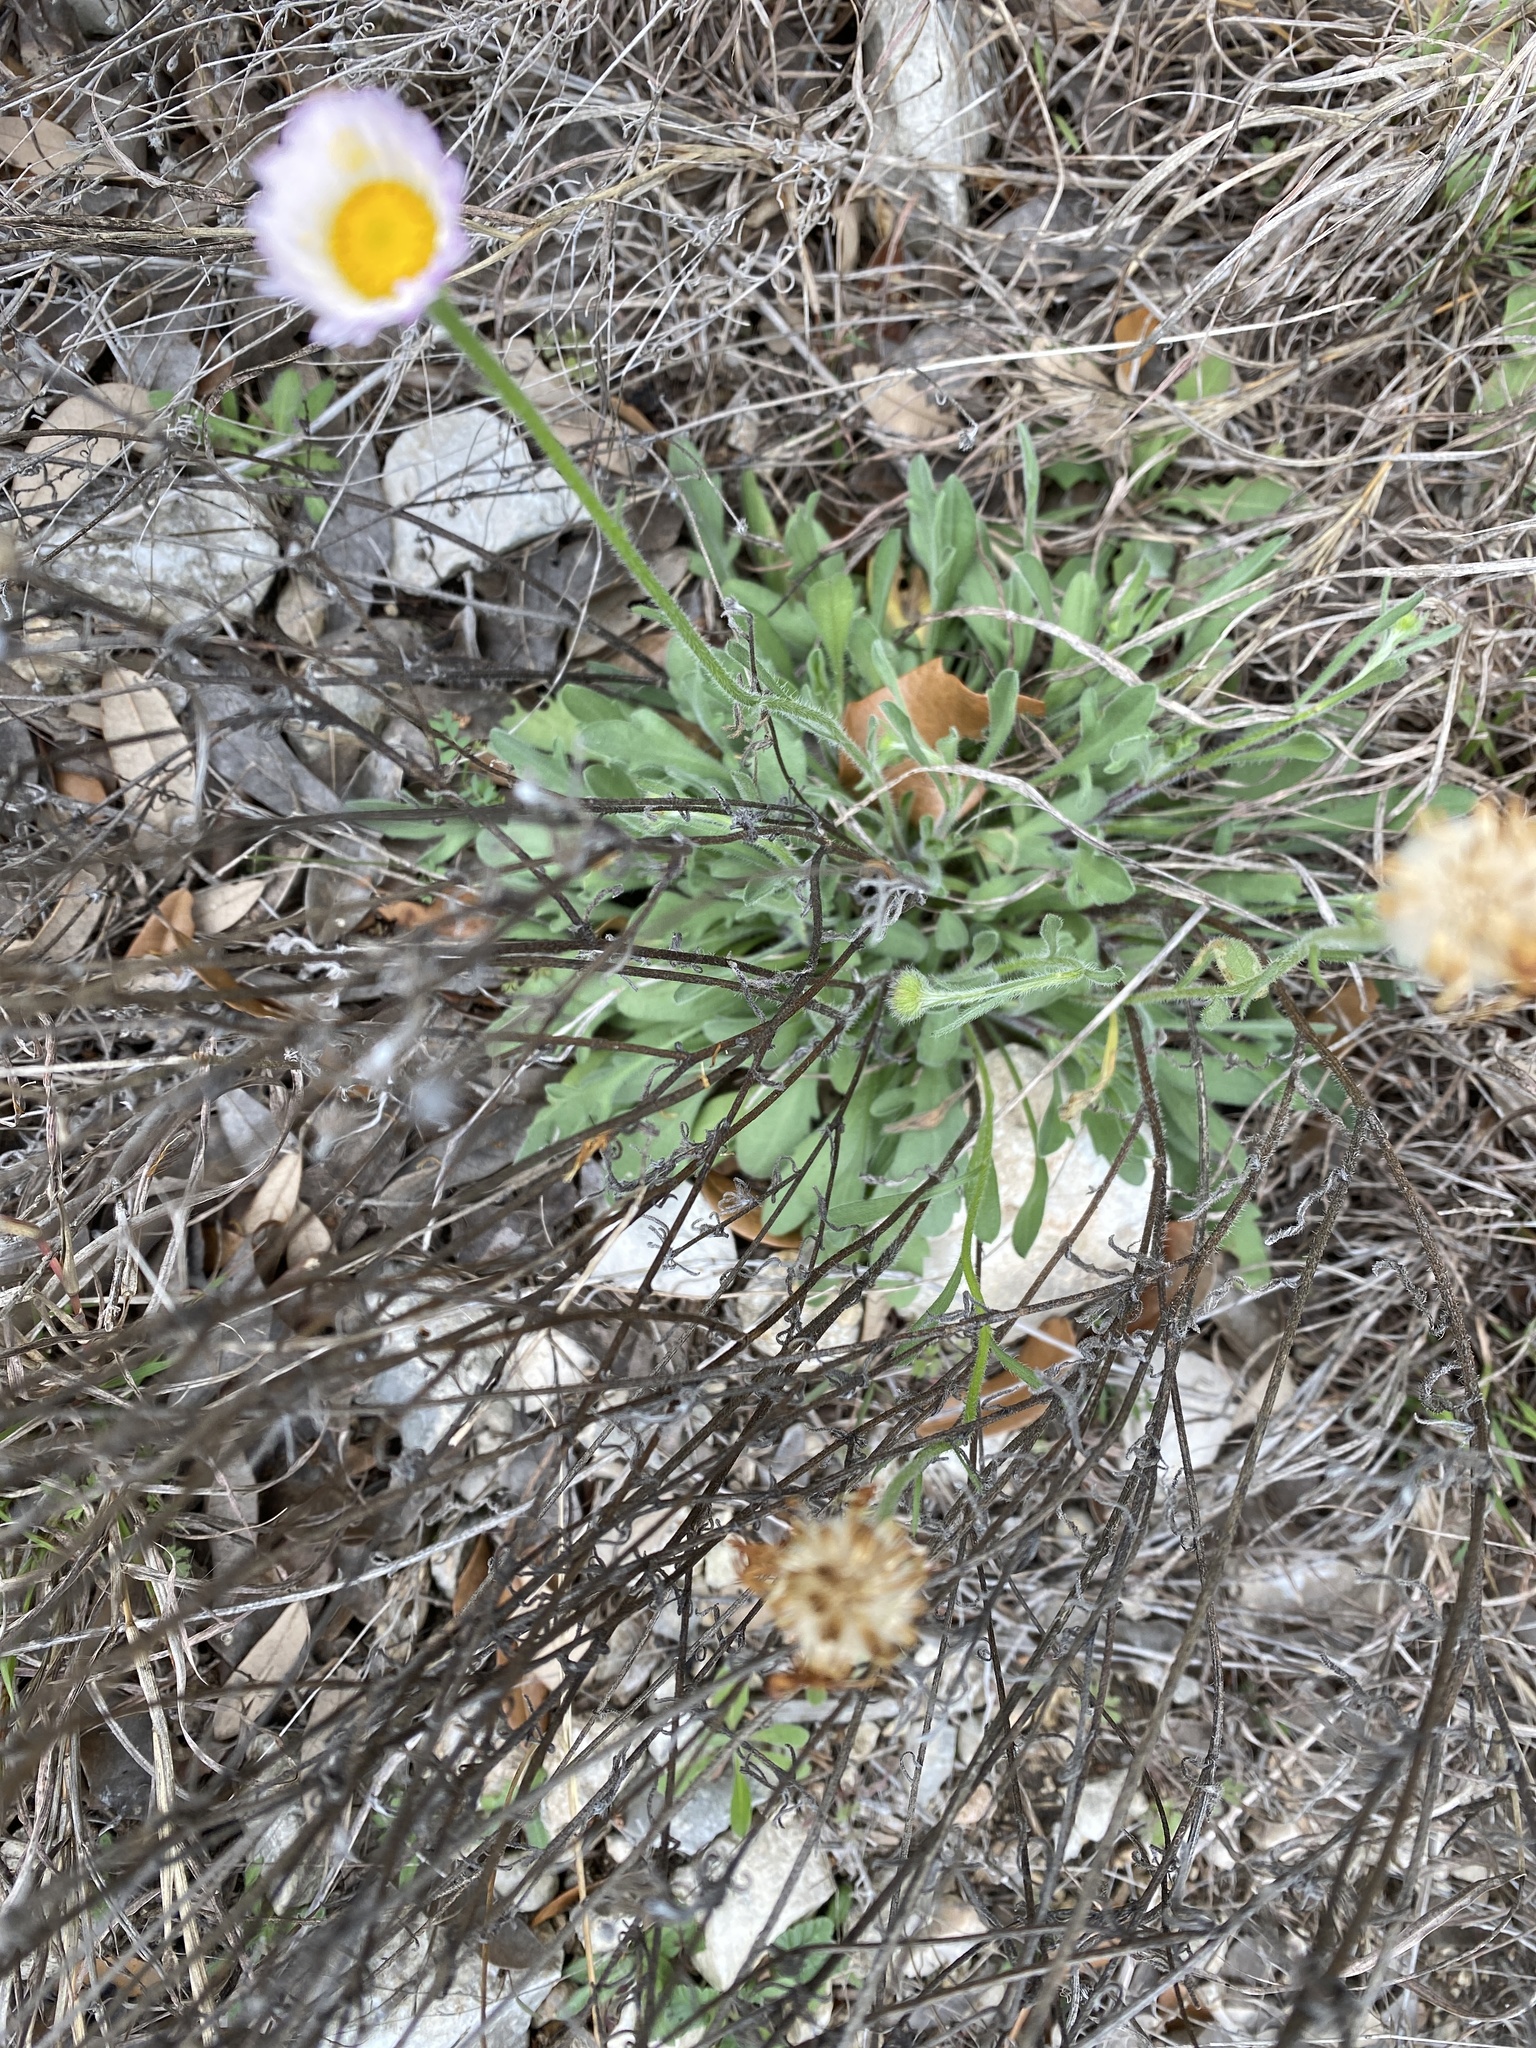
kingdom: Plantae
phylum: Tracheophyta
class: Magnoliopsida
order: Asterales
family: Asteraceae
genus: Erigeron
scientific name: Erigeron modestus
